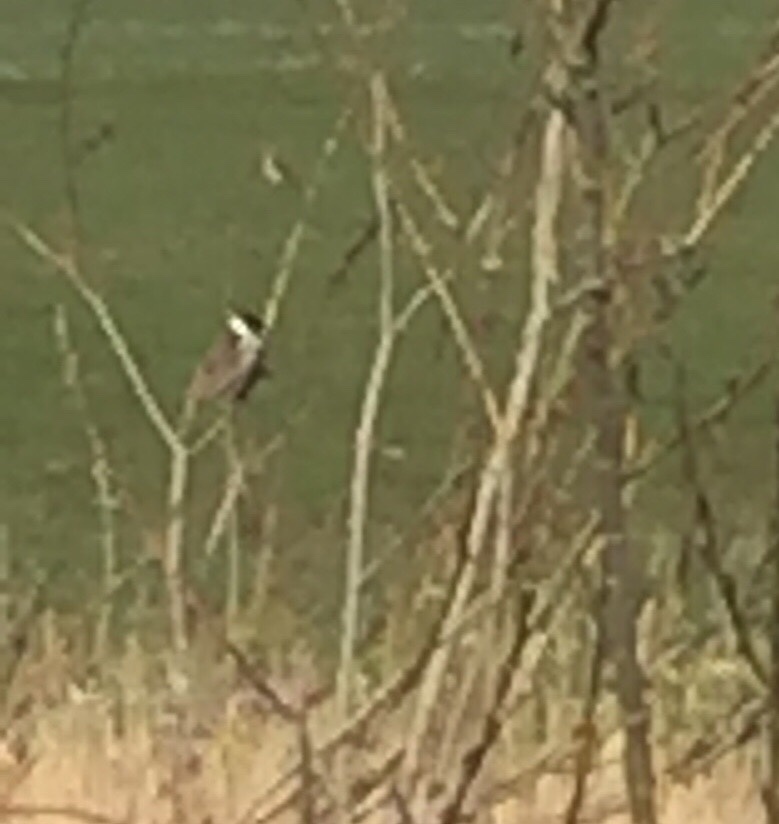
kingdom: Animalia
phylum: Chordata
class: Aves
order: Passeriformes
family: Emberizidae
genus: Emberiza
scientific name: Emberiza schoeniclus
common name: Reed bunting
